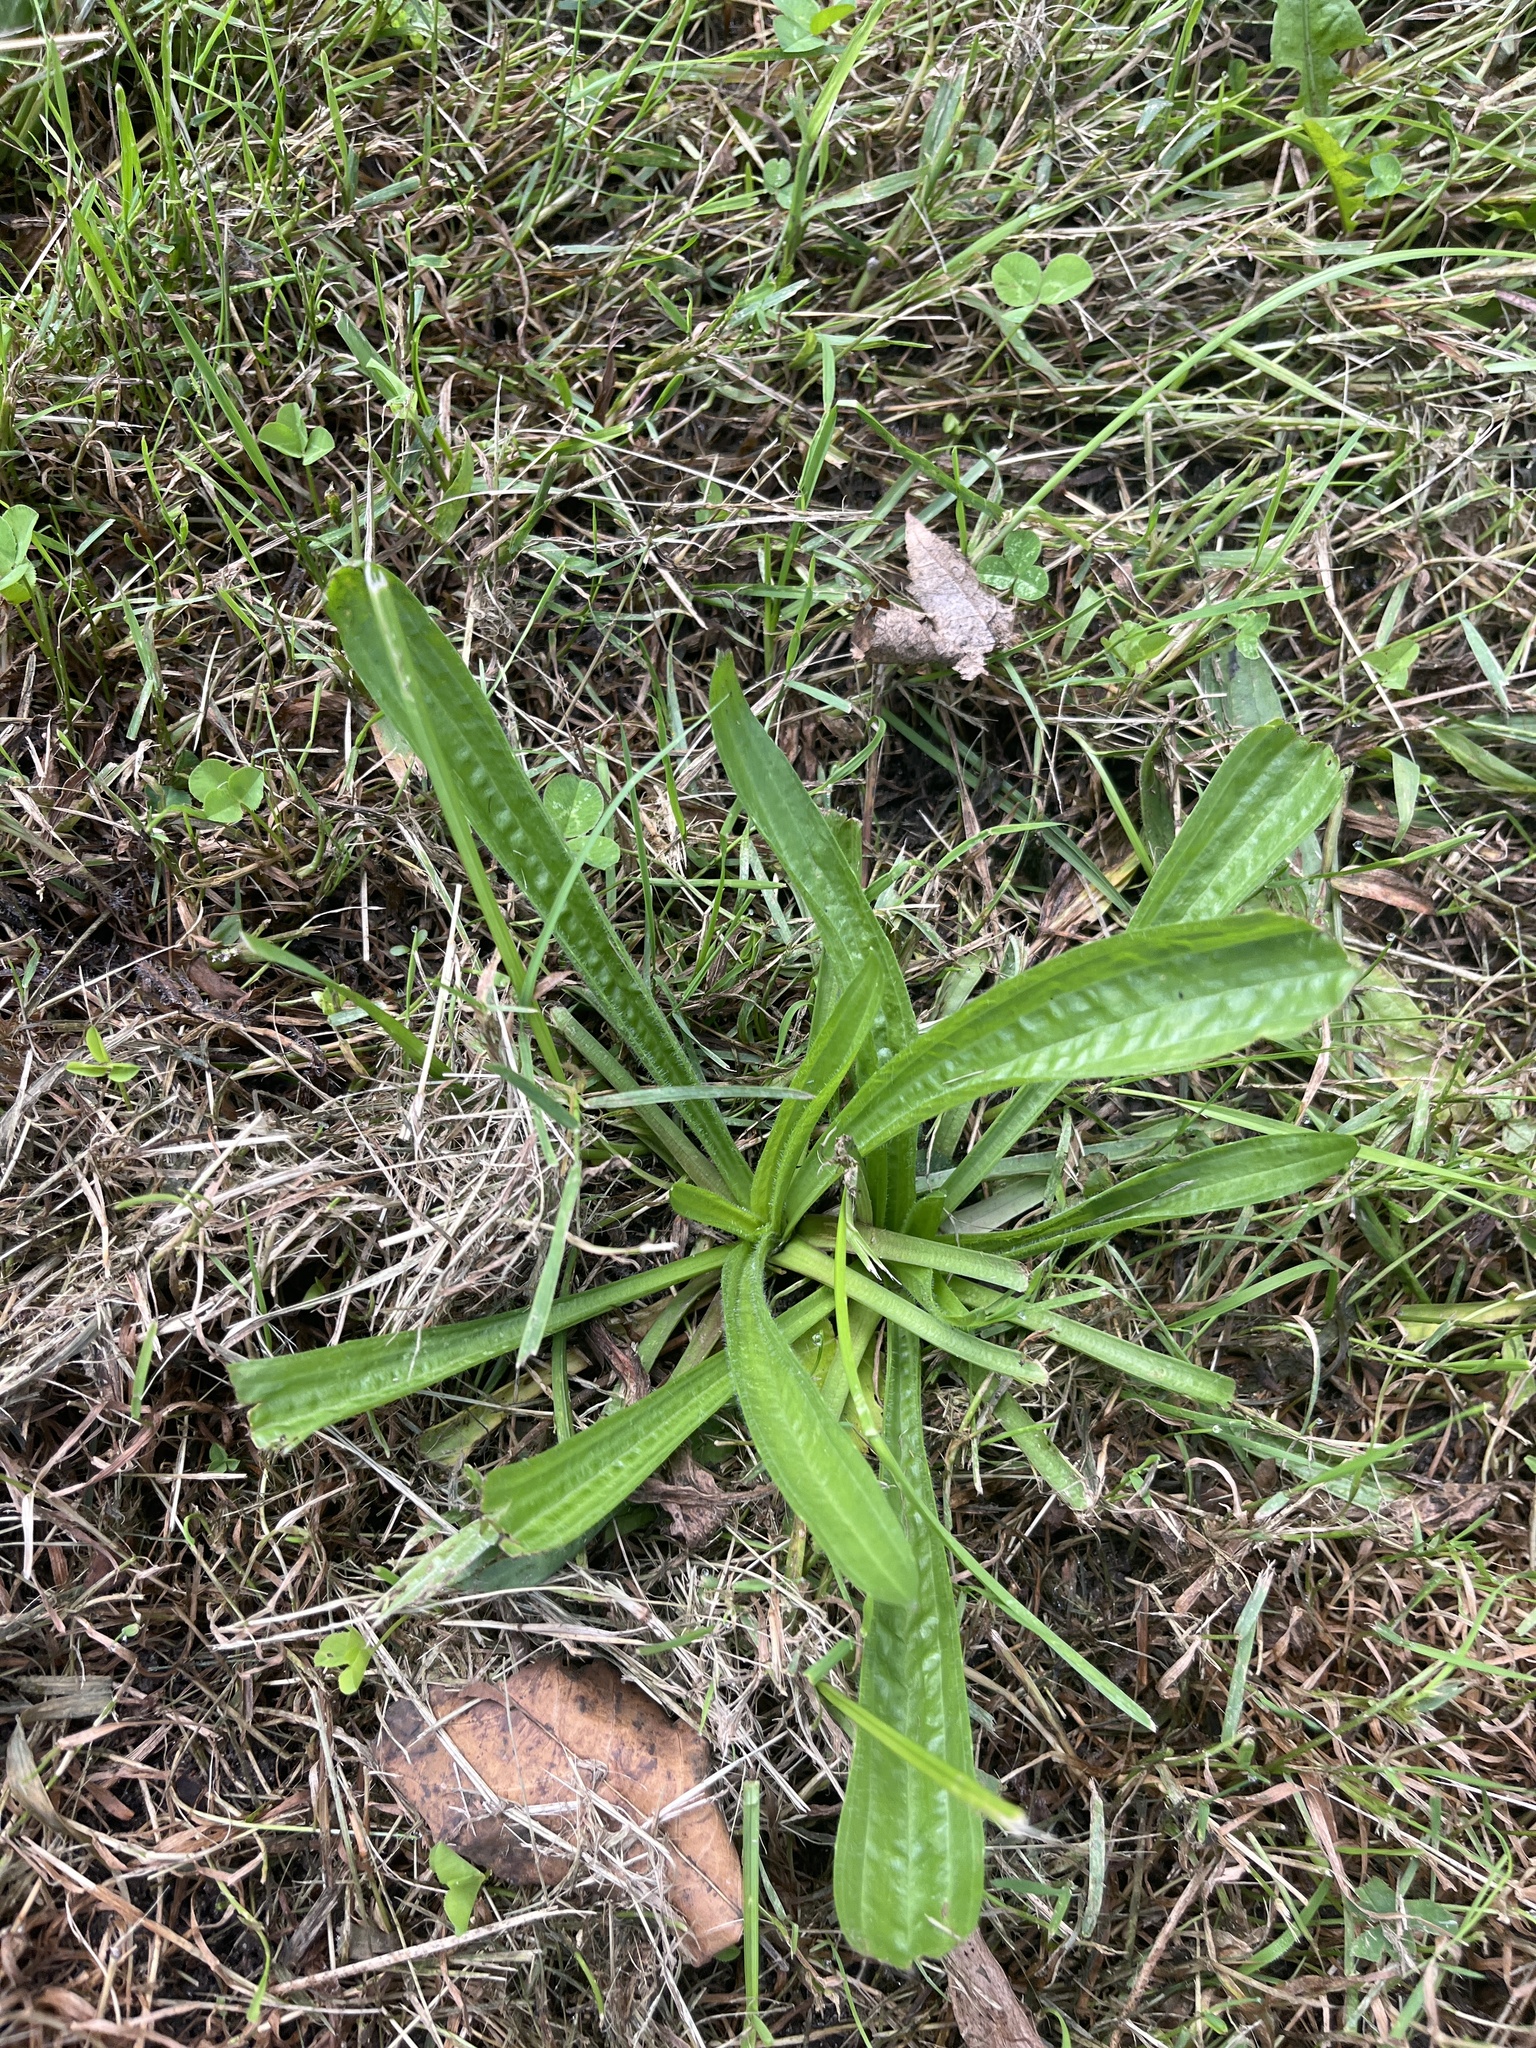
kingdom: Plantae
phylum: Tracheophyta
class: Magnoliopsida
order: Lamiales
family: Plantaginaceae
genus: Plantago
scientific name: Plantago lanceolata
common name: Ribwort plantain
